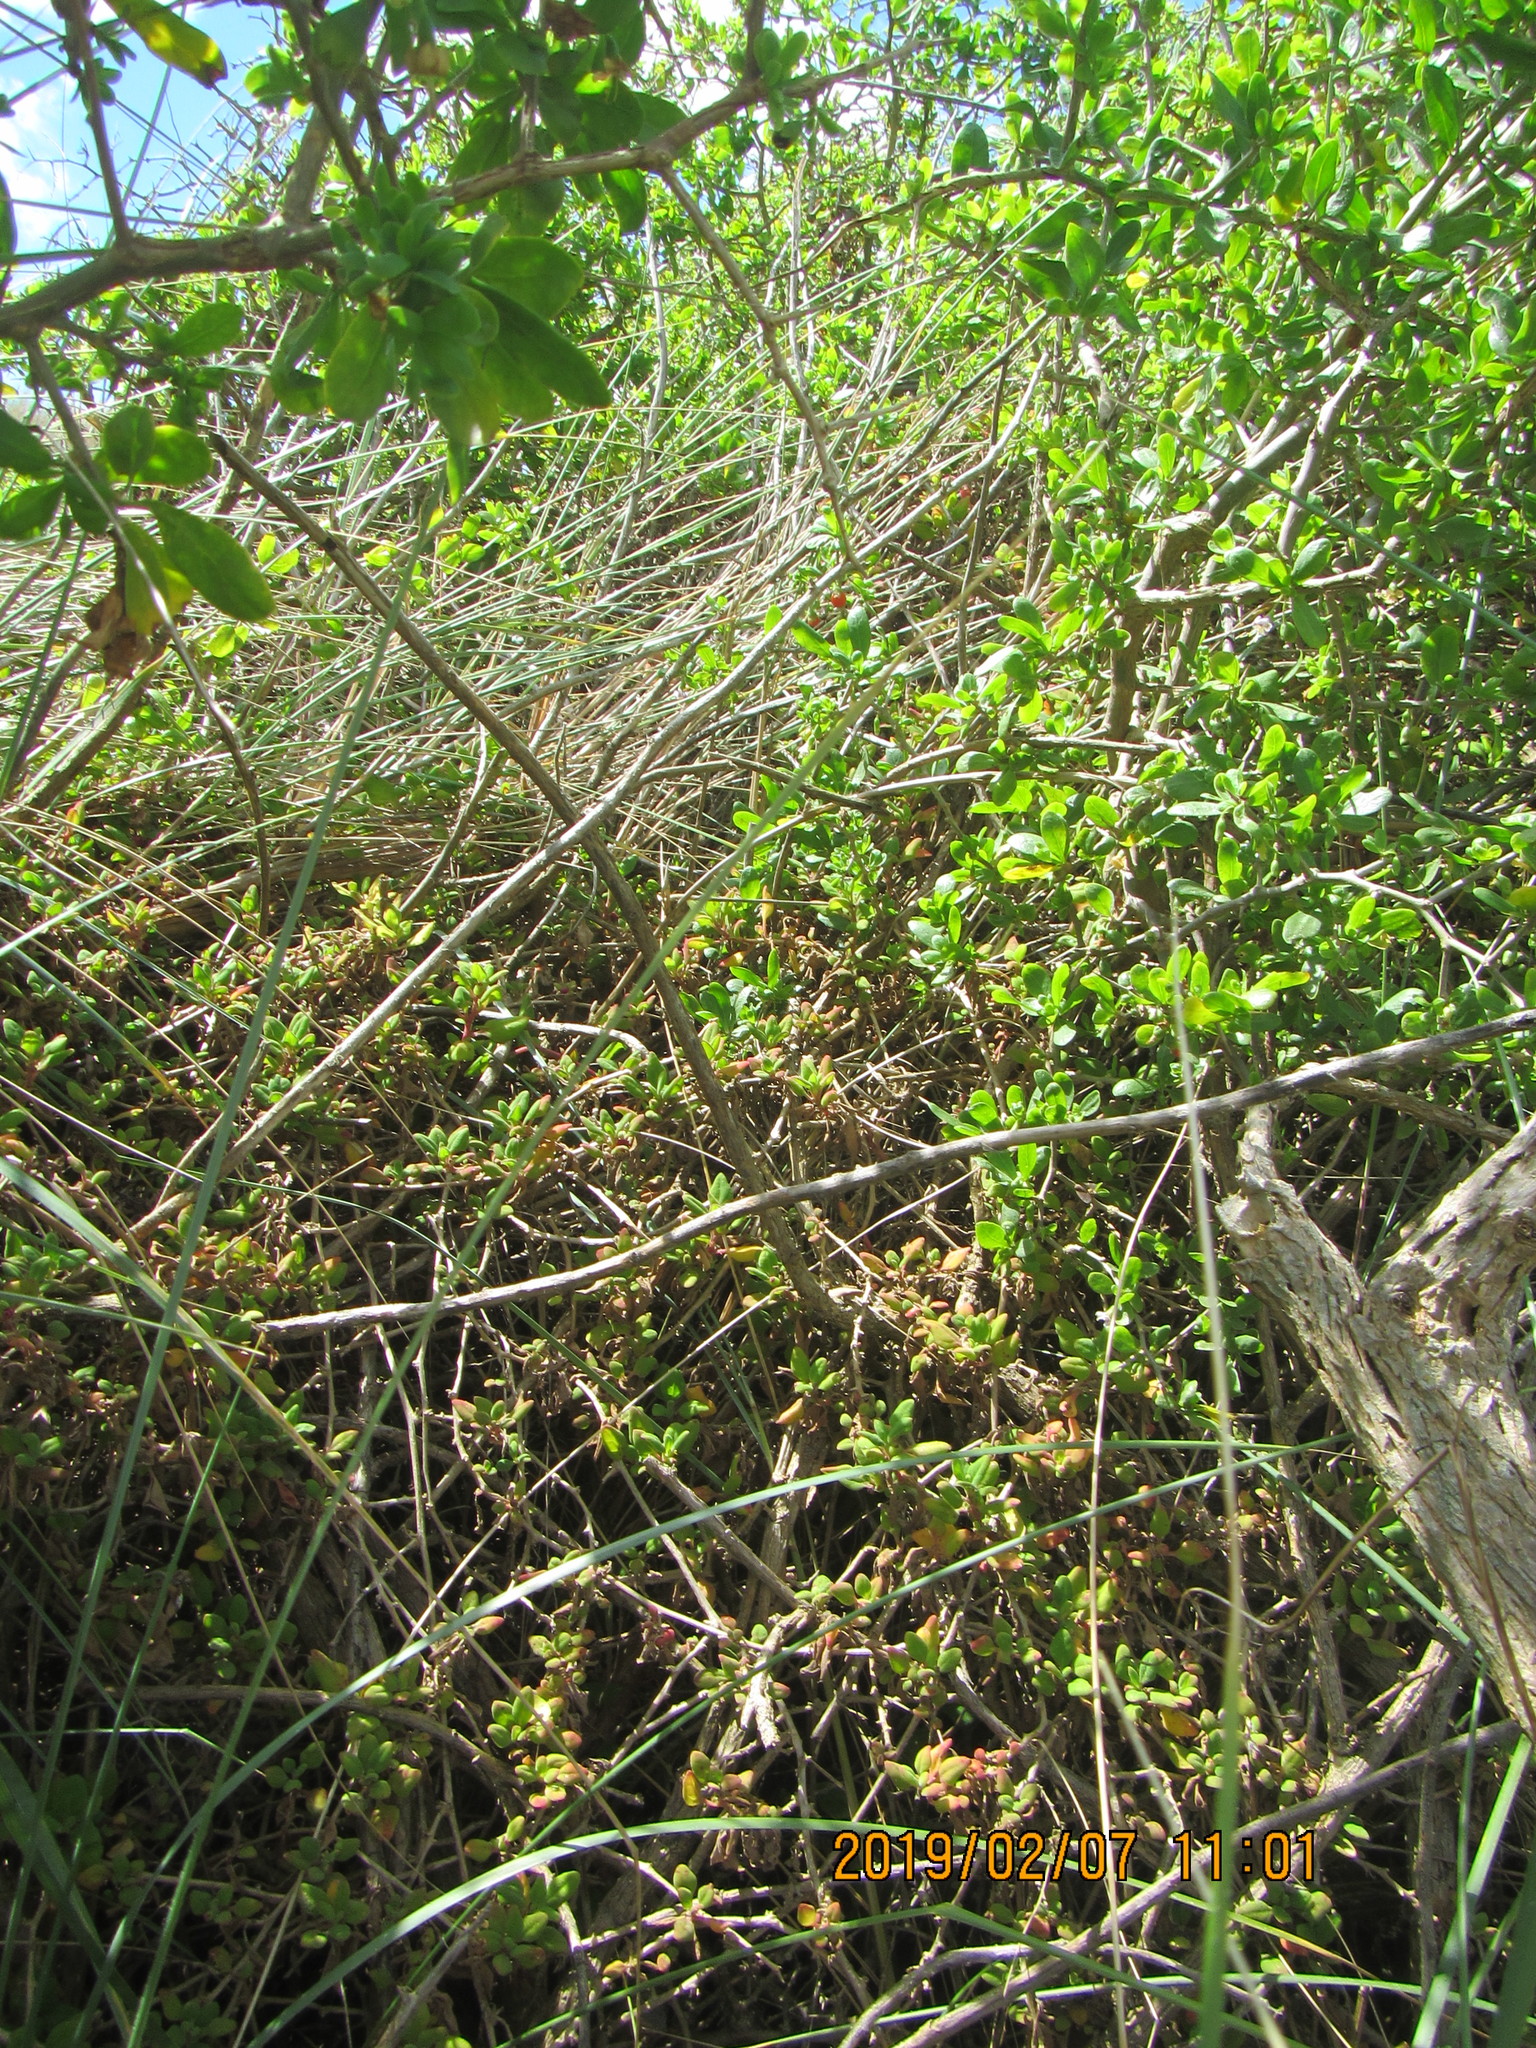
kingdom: Plantae
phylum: Tracheophyta
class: Magnoliopsida
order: Solanales
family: Solanaceae
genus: Lycium
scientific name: Lycium ferocissimum
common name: African boxthorn
